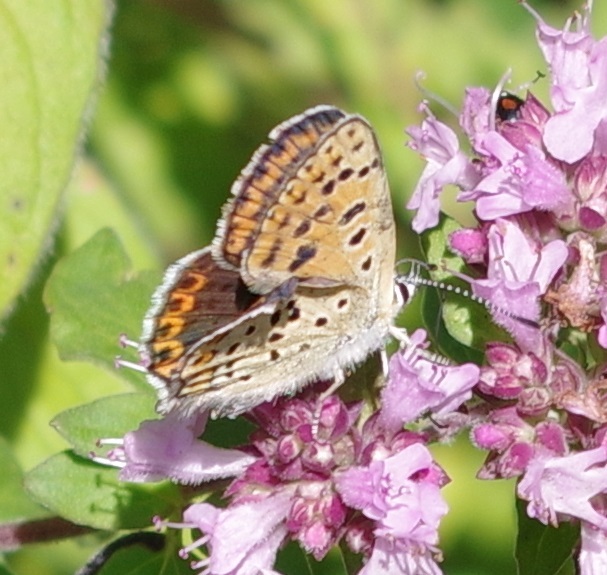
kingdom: Animalia
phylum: Arthropoda
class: Insecta
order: Lepidoptera
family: Lycaenidae
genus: Loweia
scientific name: Loweia tityrus
